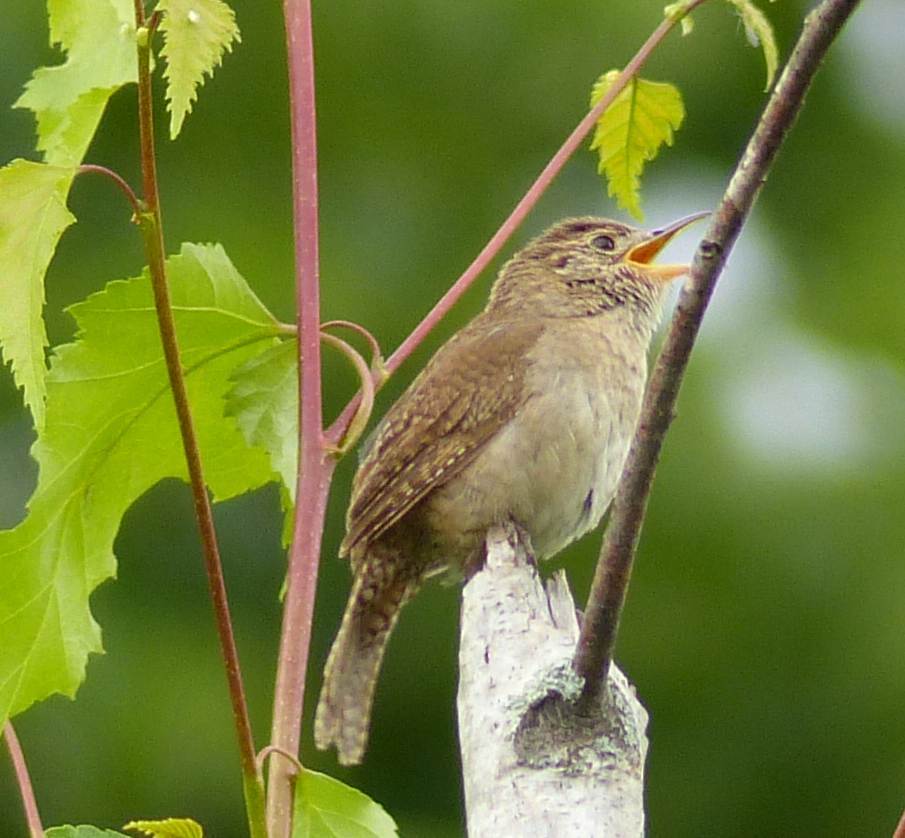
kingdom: Animalia
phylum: Chordata
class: Aves
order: Passeriformes
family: Troglodytidae
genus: Troglodytes
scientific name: Troglodytes aedon
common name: House wren
